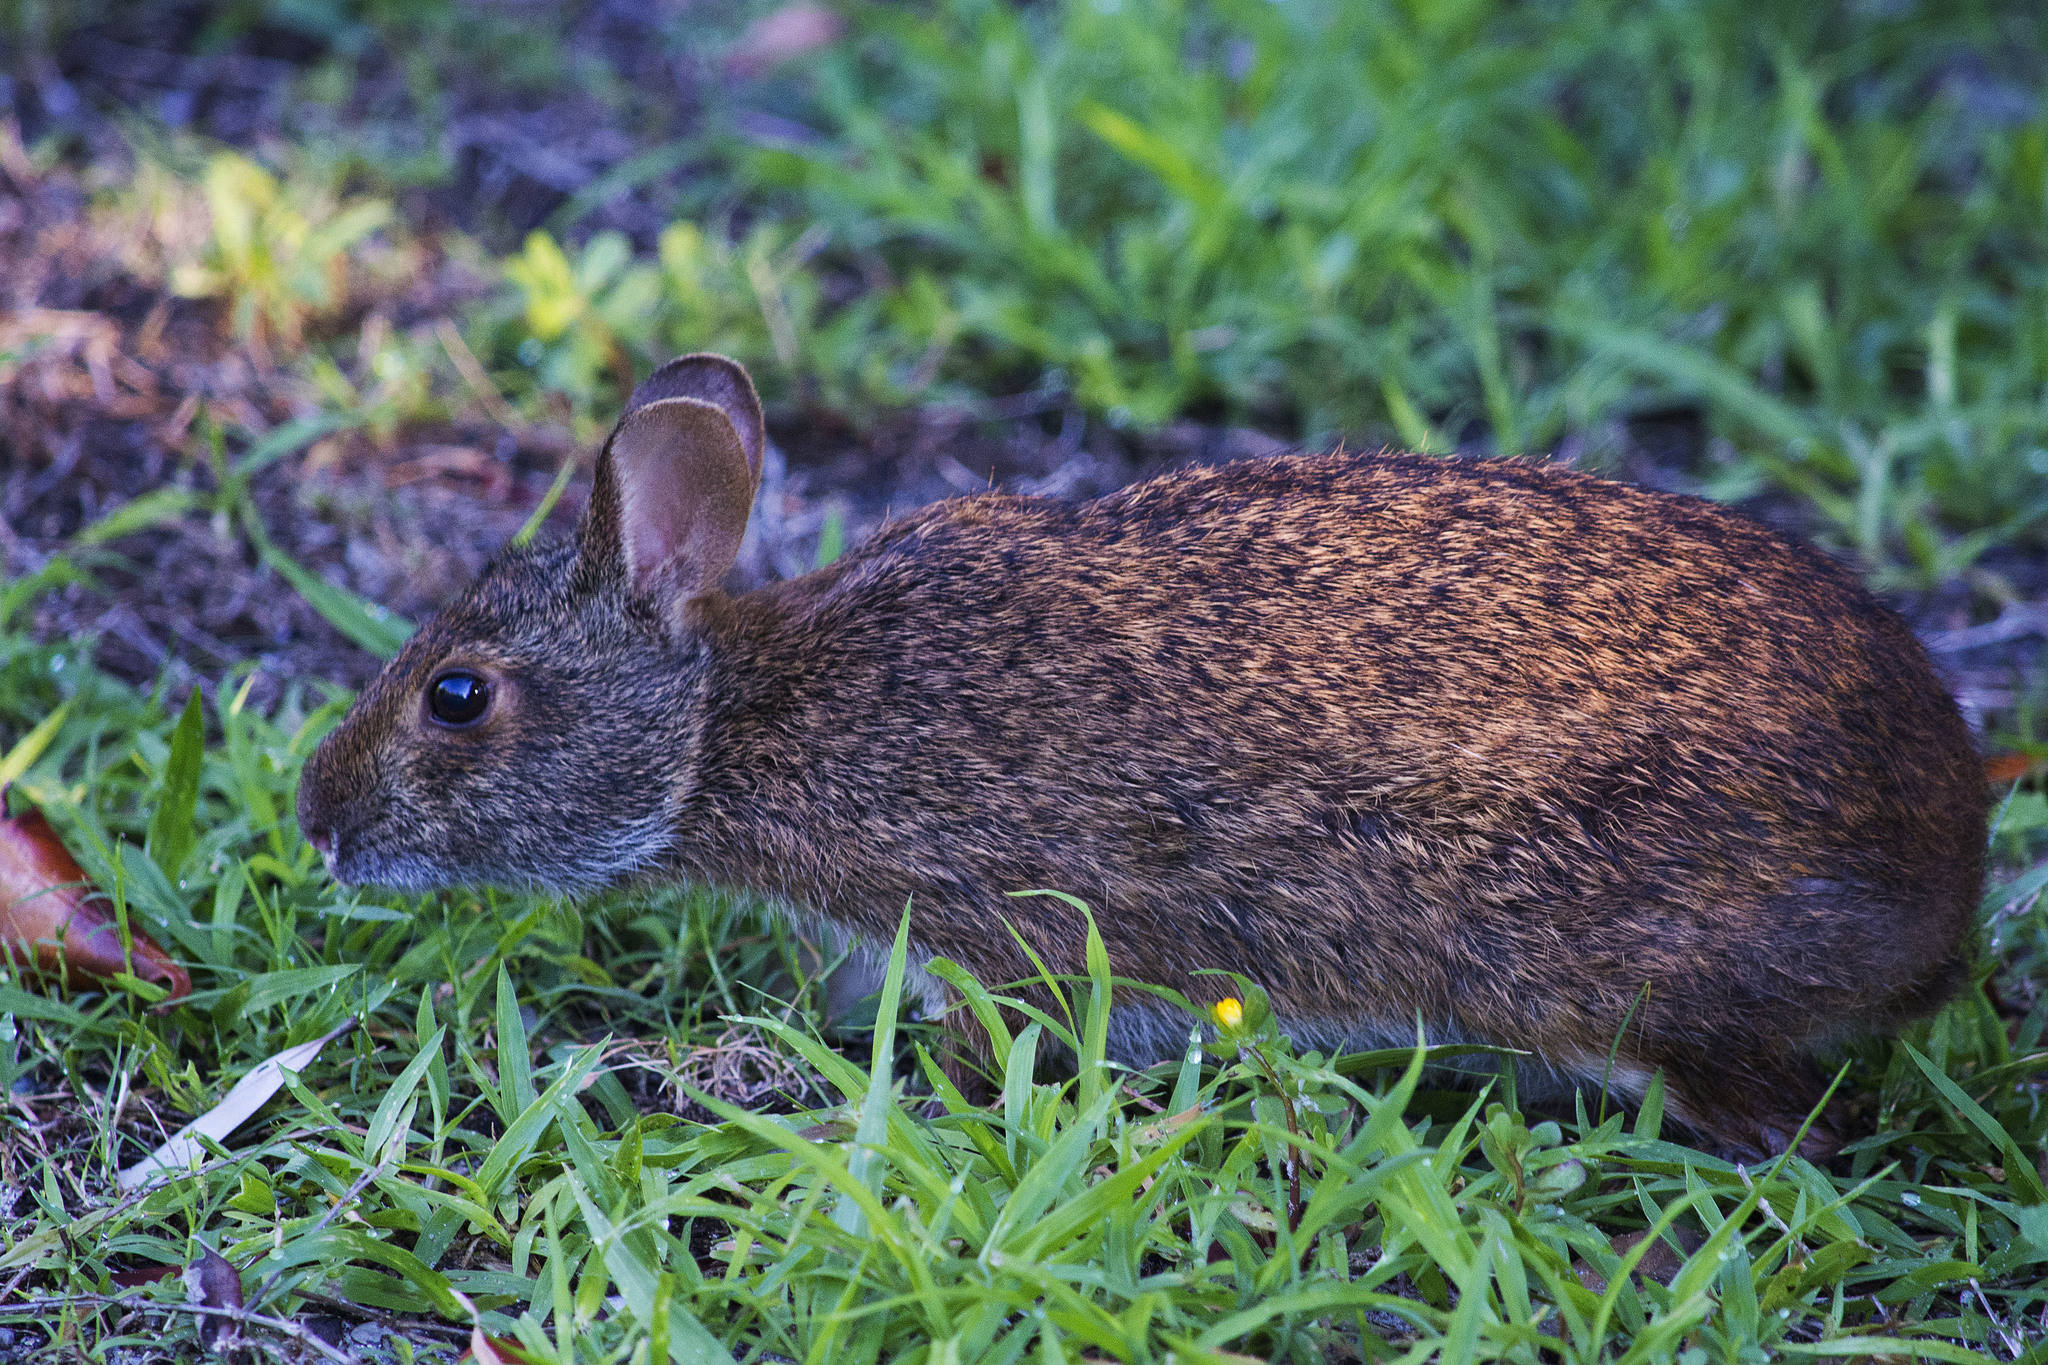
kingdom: Animalia
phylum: Chordata
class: Mammalia
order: Lagomorpha
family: Leporidae
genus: Sylvilagus
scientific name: Sylvilagus palustris
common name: Marsh rabbit
